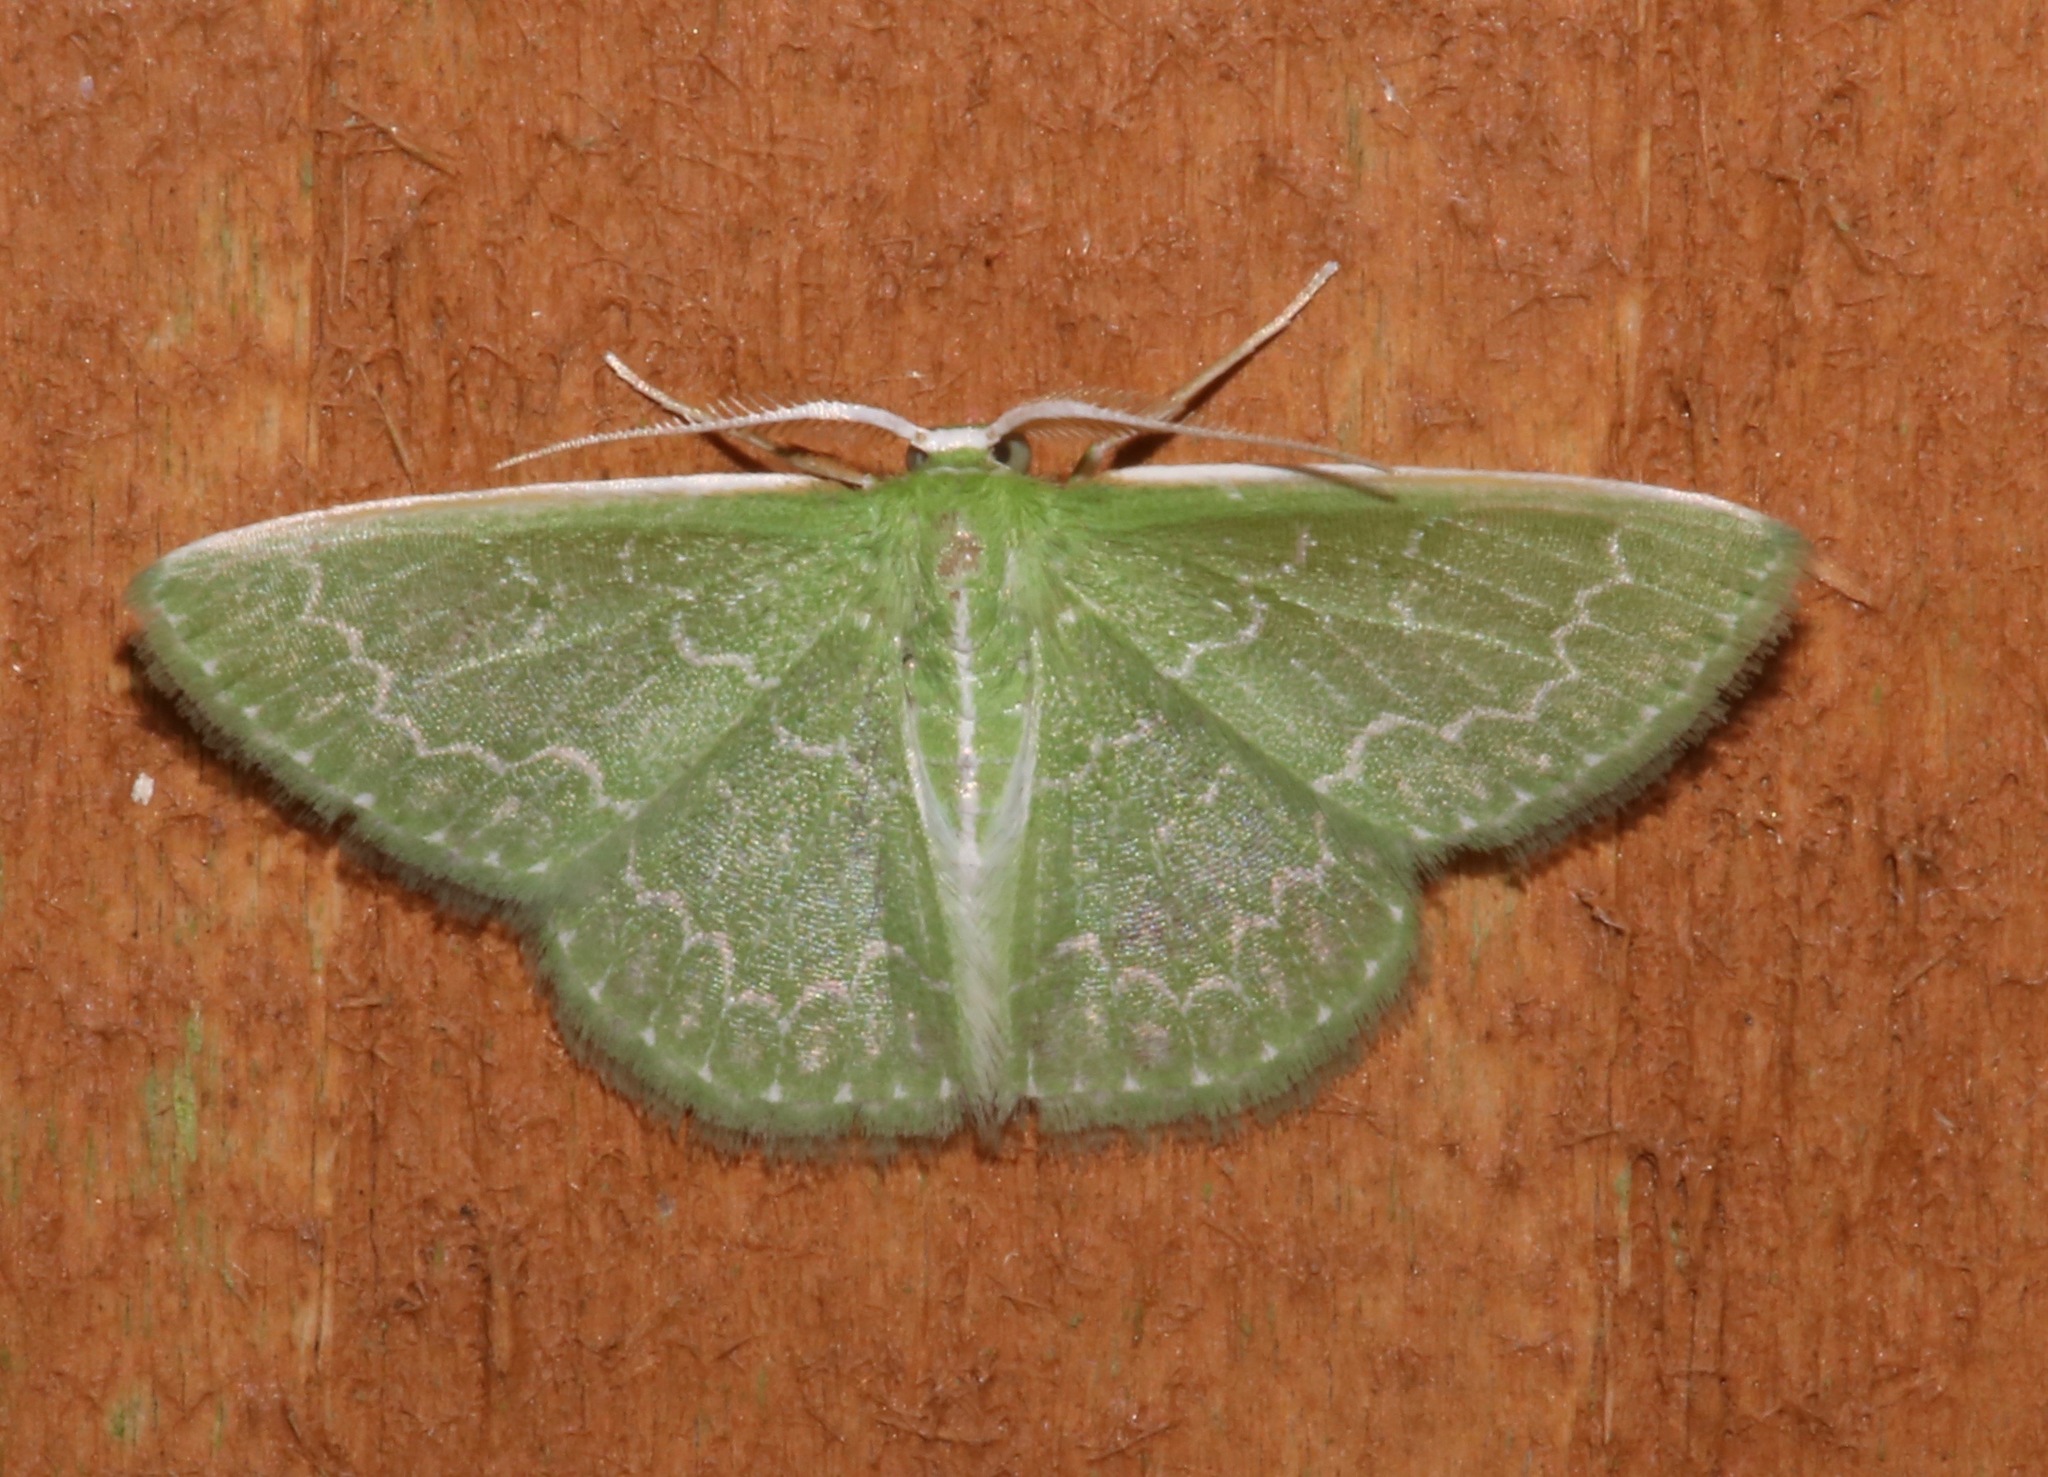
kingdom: Animalia
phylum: Arthropoda
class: Insecta
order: Lepidoptera
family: Geometridae
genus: Synchlora
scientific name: Synchlora frondaria
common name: Southern emerald
